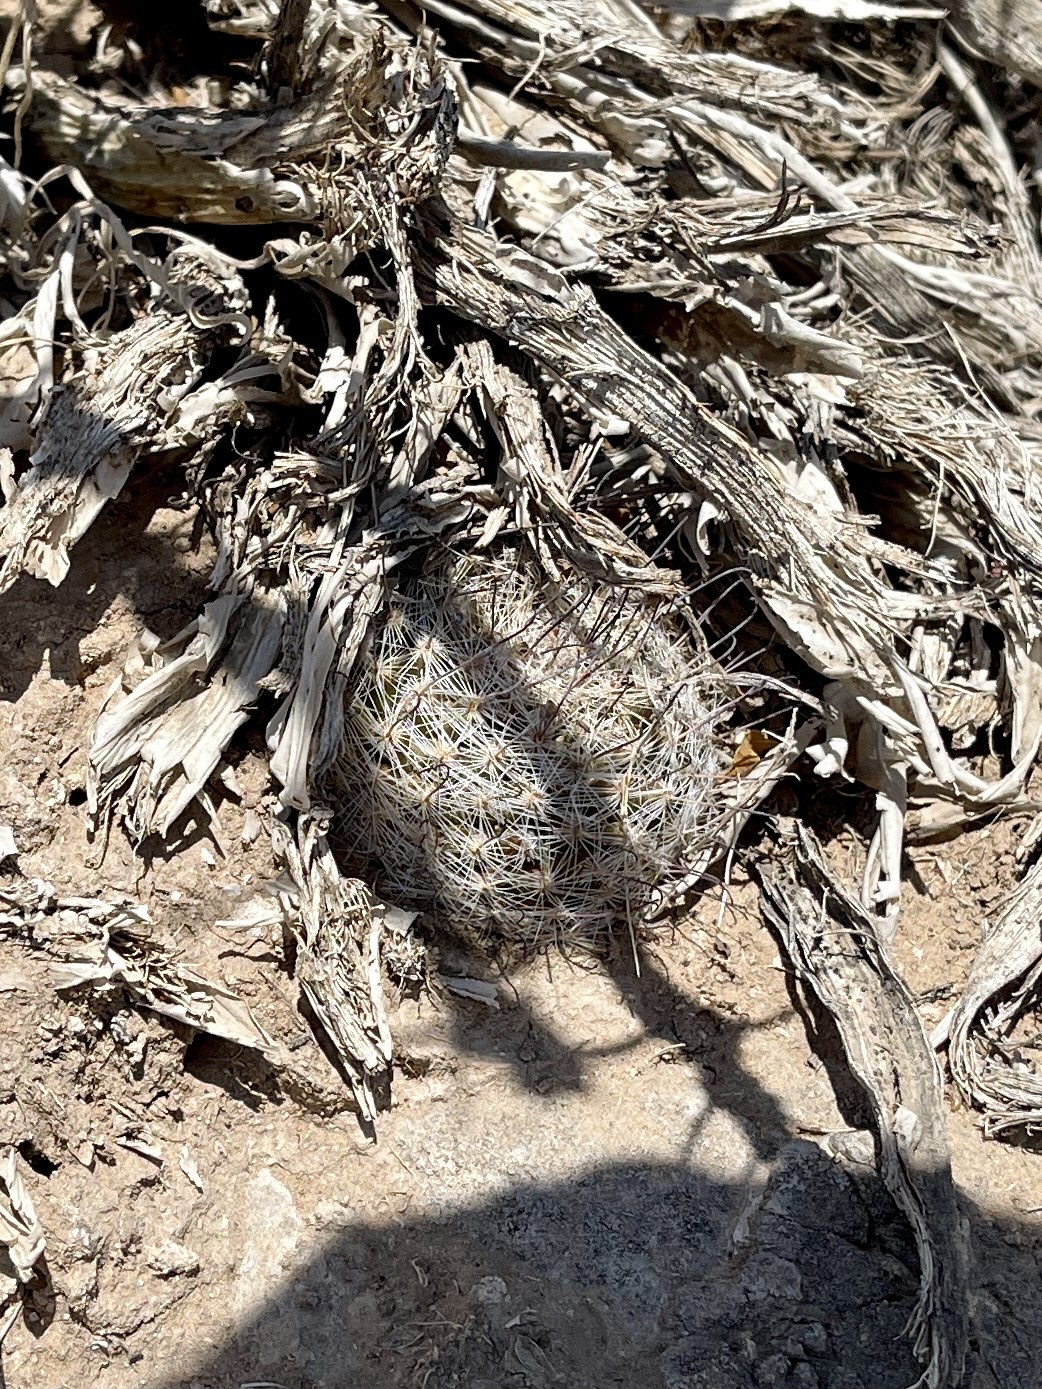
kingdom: Plantae
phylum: Tracheophyta
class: Magnoliopsida
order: Caryophyllales
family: Cactaceae
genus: Cochemiea
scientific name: Cochemiea grahamii
